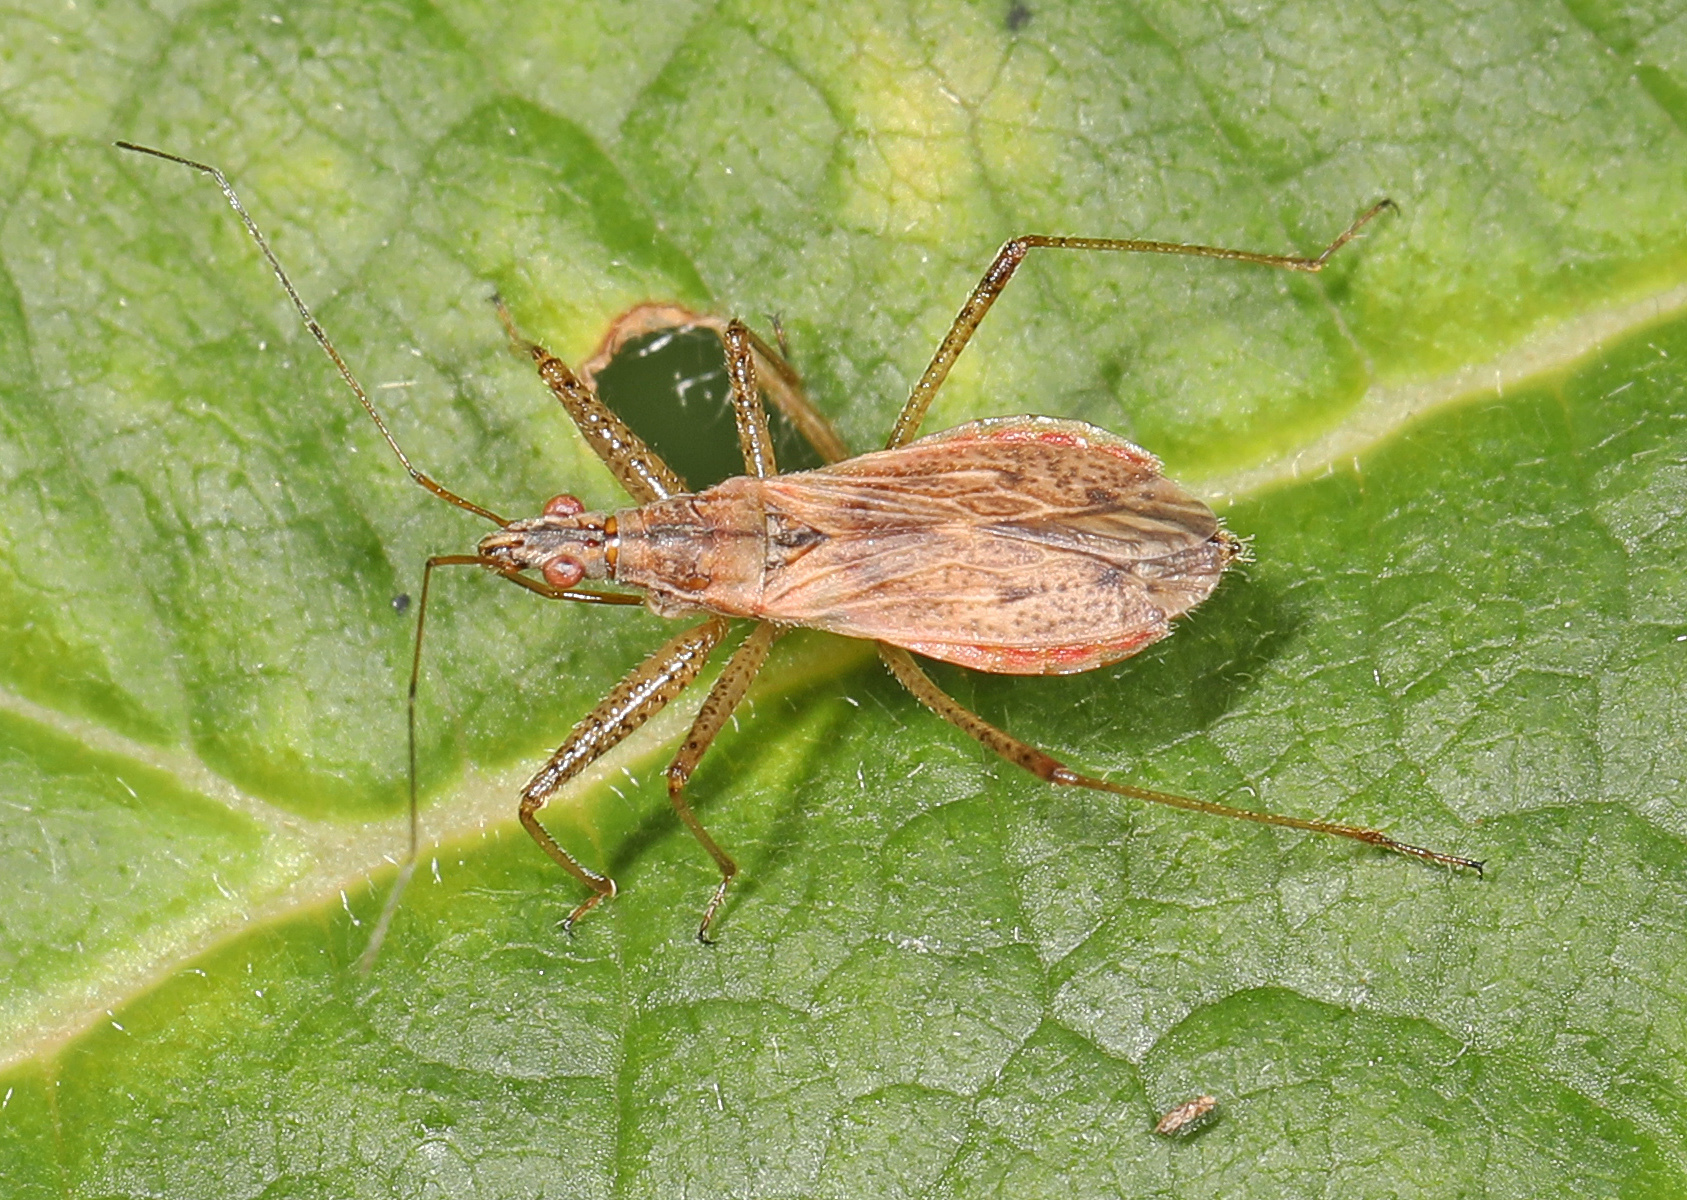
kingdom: Animalia
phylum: Arthropoda
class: Insecta
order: Hemiptera
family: Nabidae
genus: Nabis
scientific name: Nabis rufusculus
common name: Short-winged nabis
